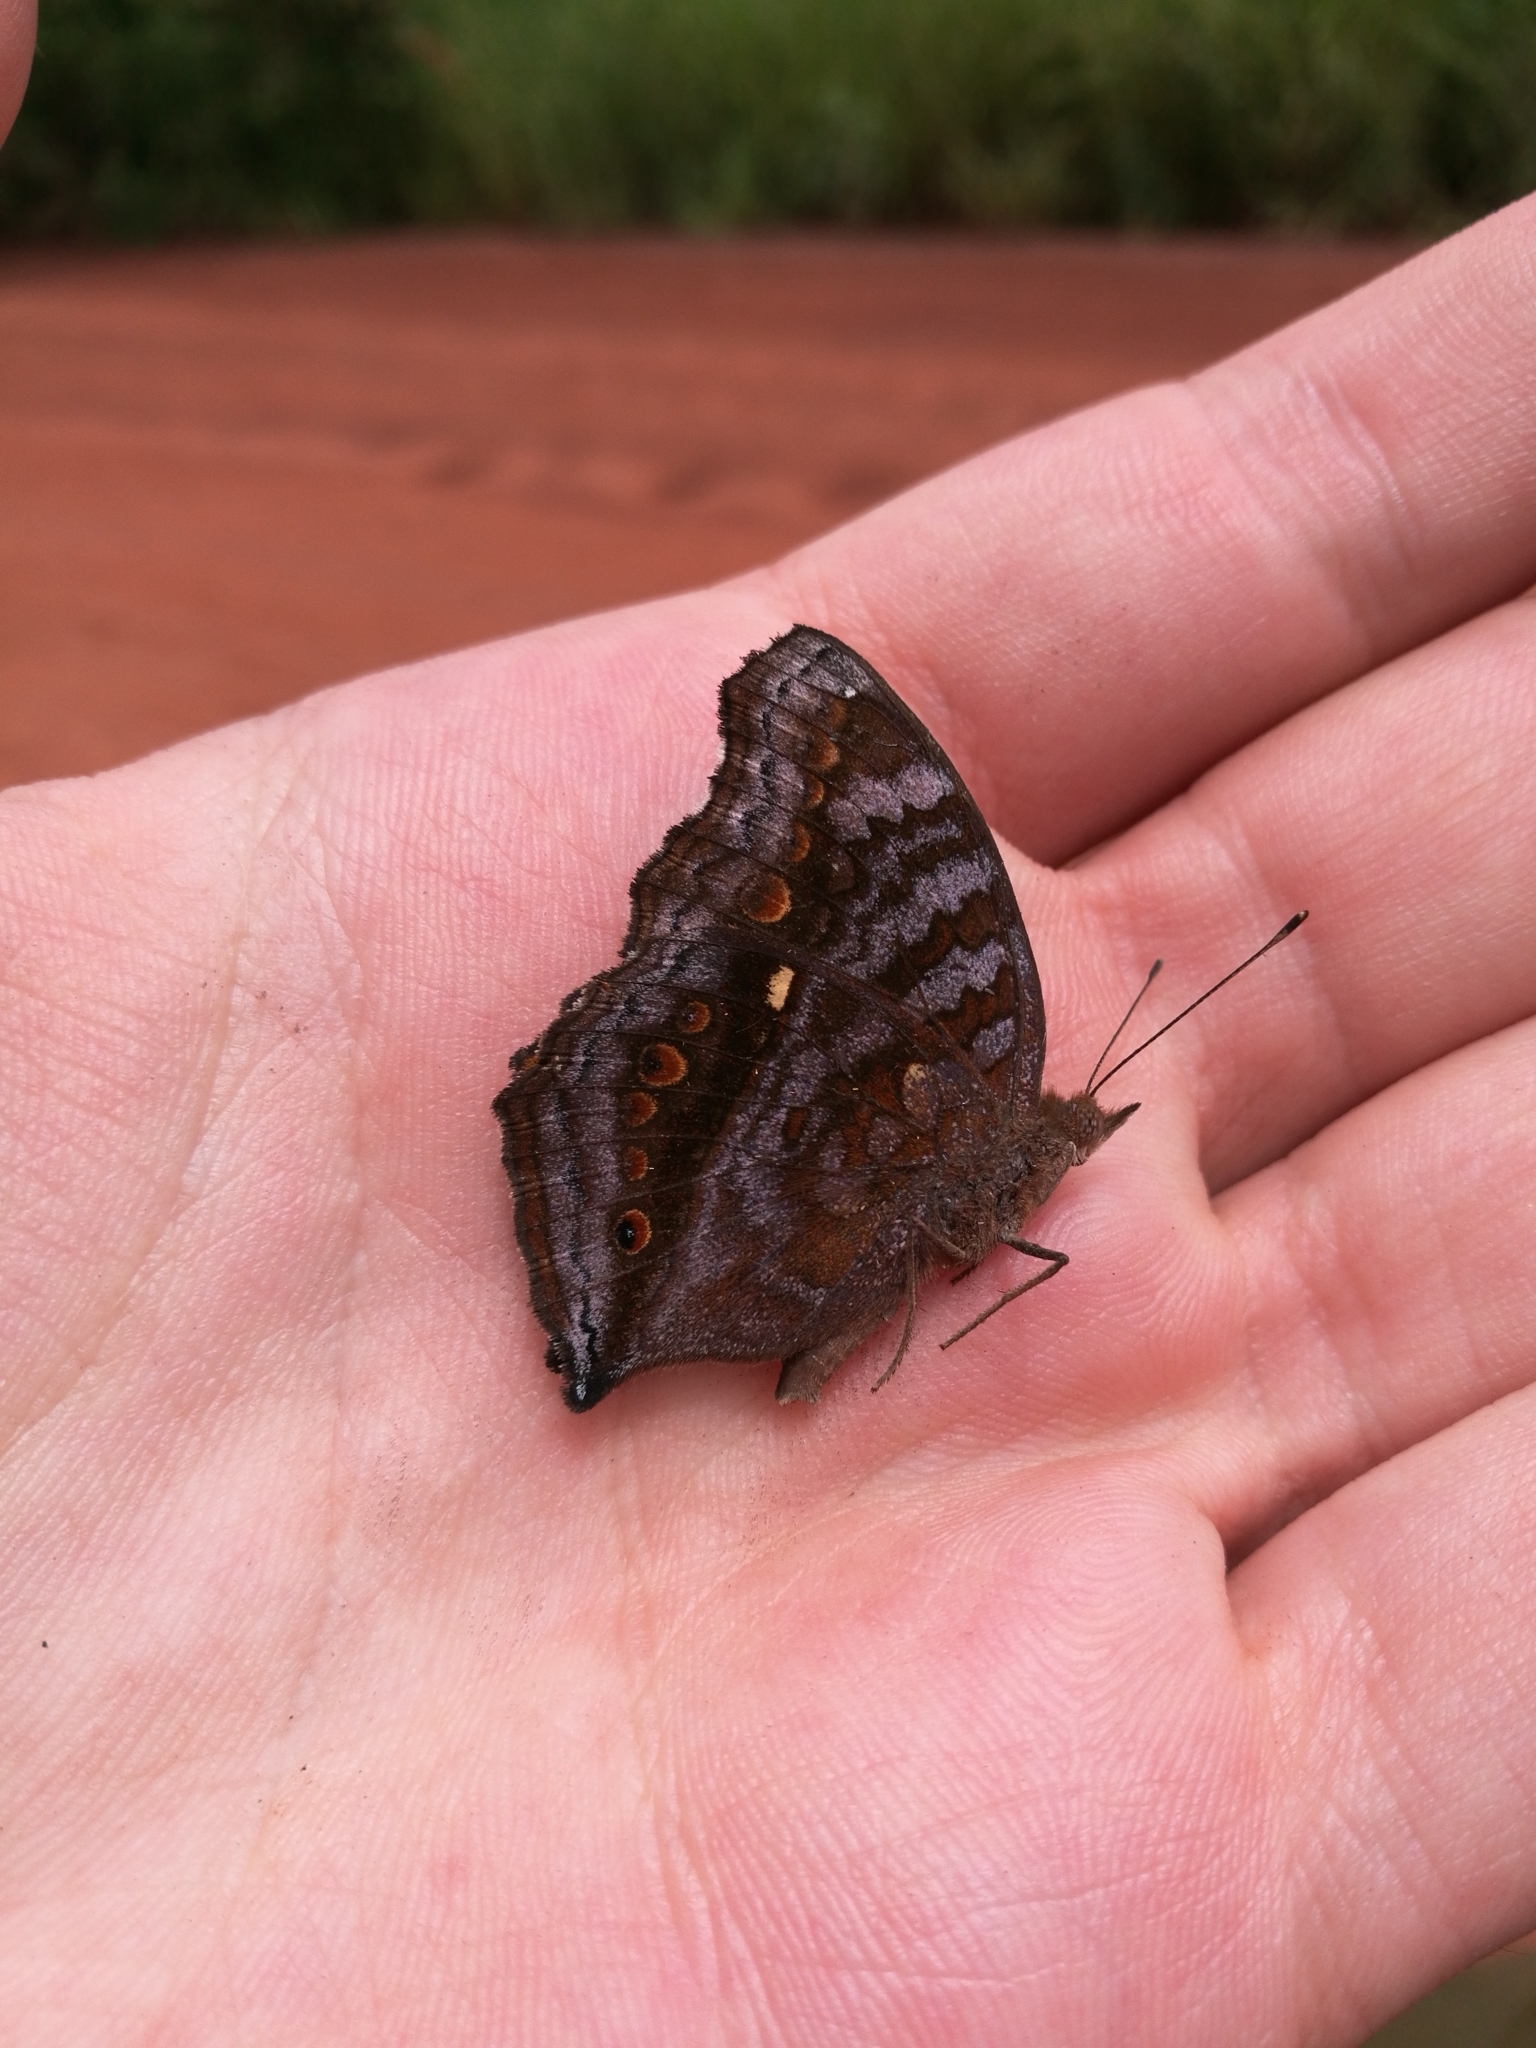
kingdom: Animalia
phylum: Arthropoda
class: Insecta
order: Lepidoptera
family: Nymphalidae
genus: Junonia
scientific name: Junonia chorimene
